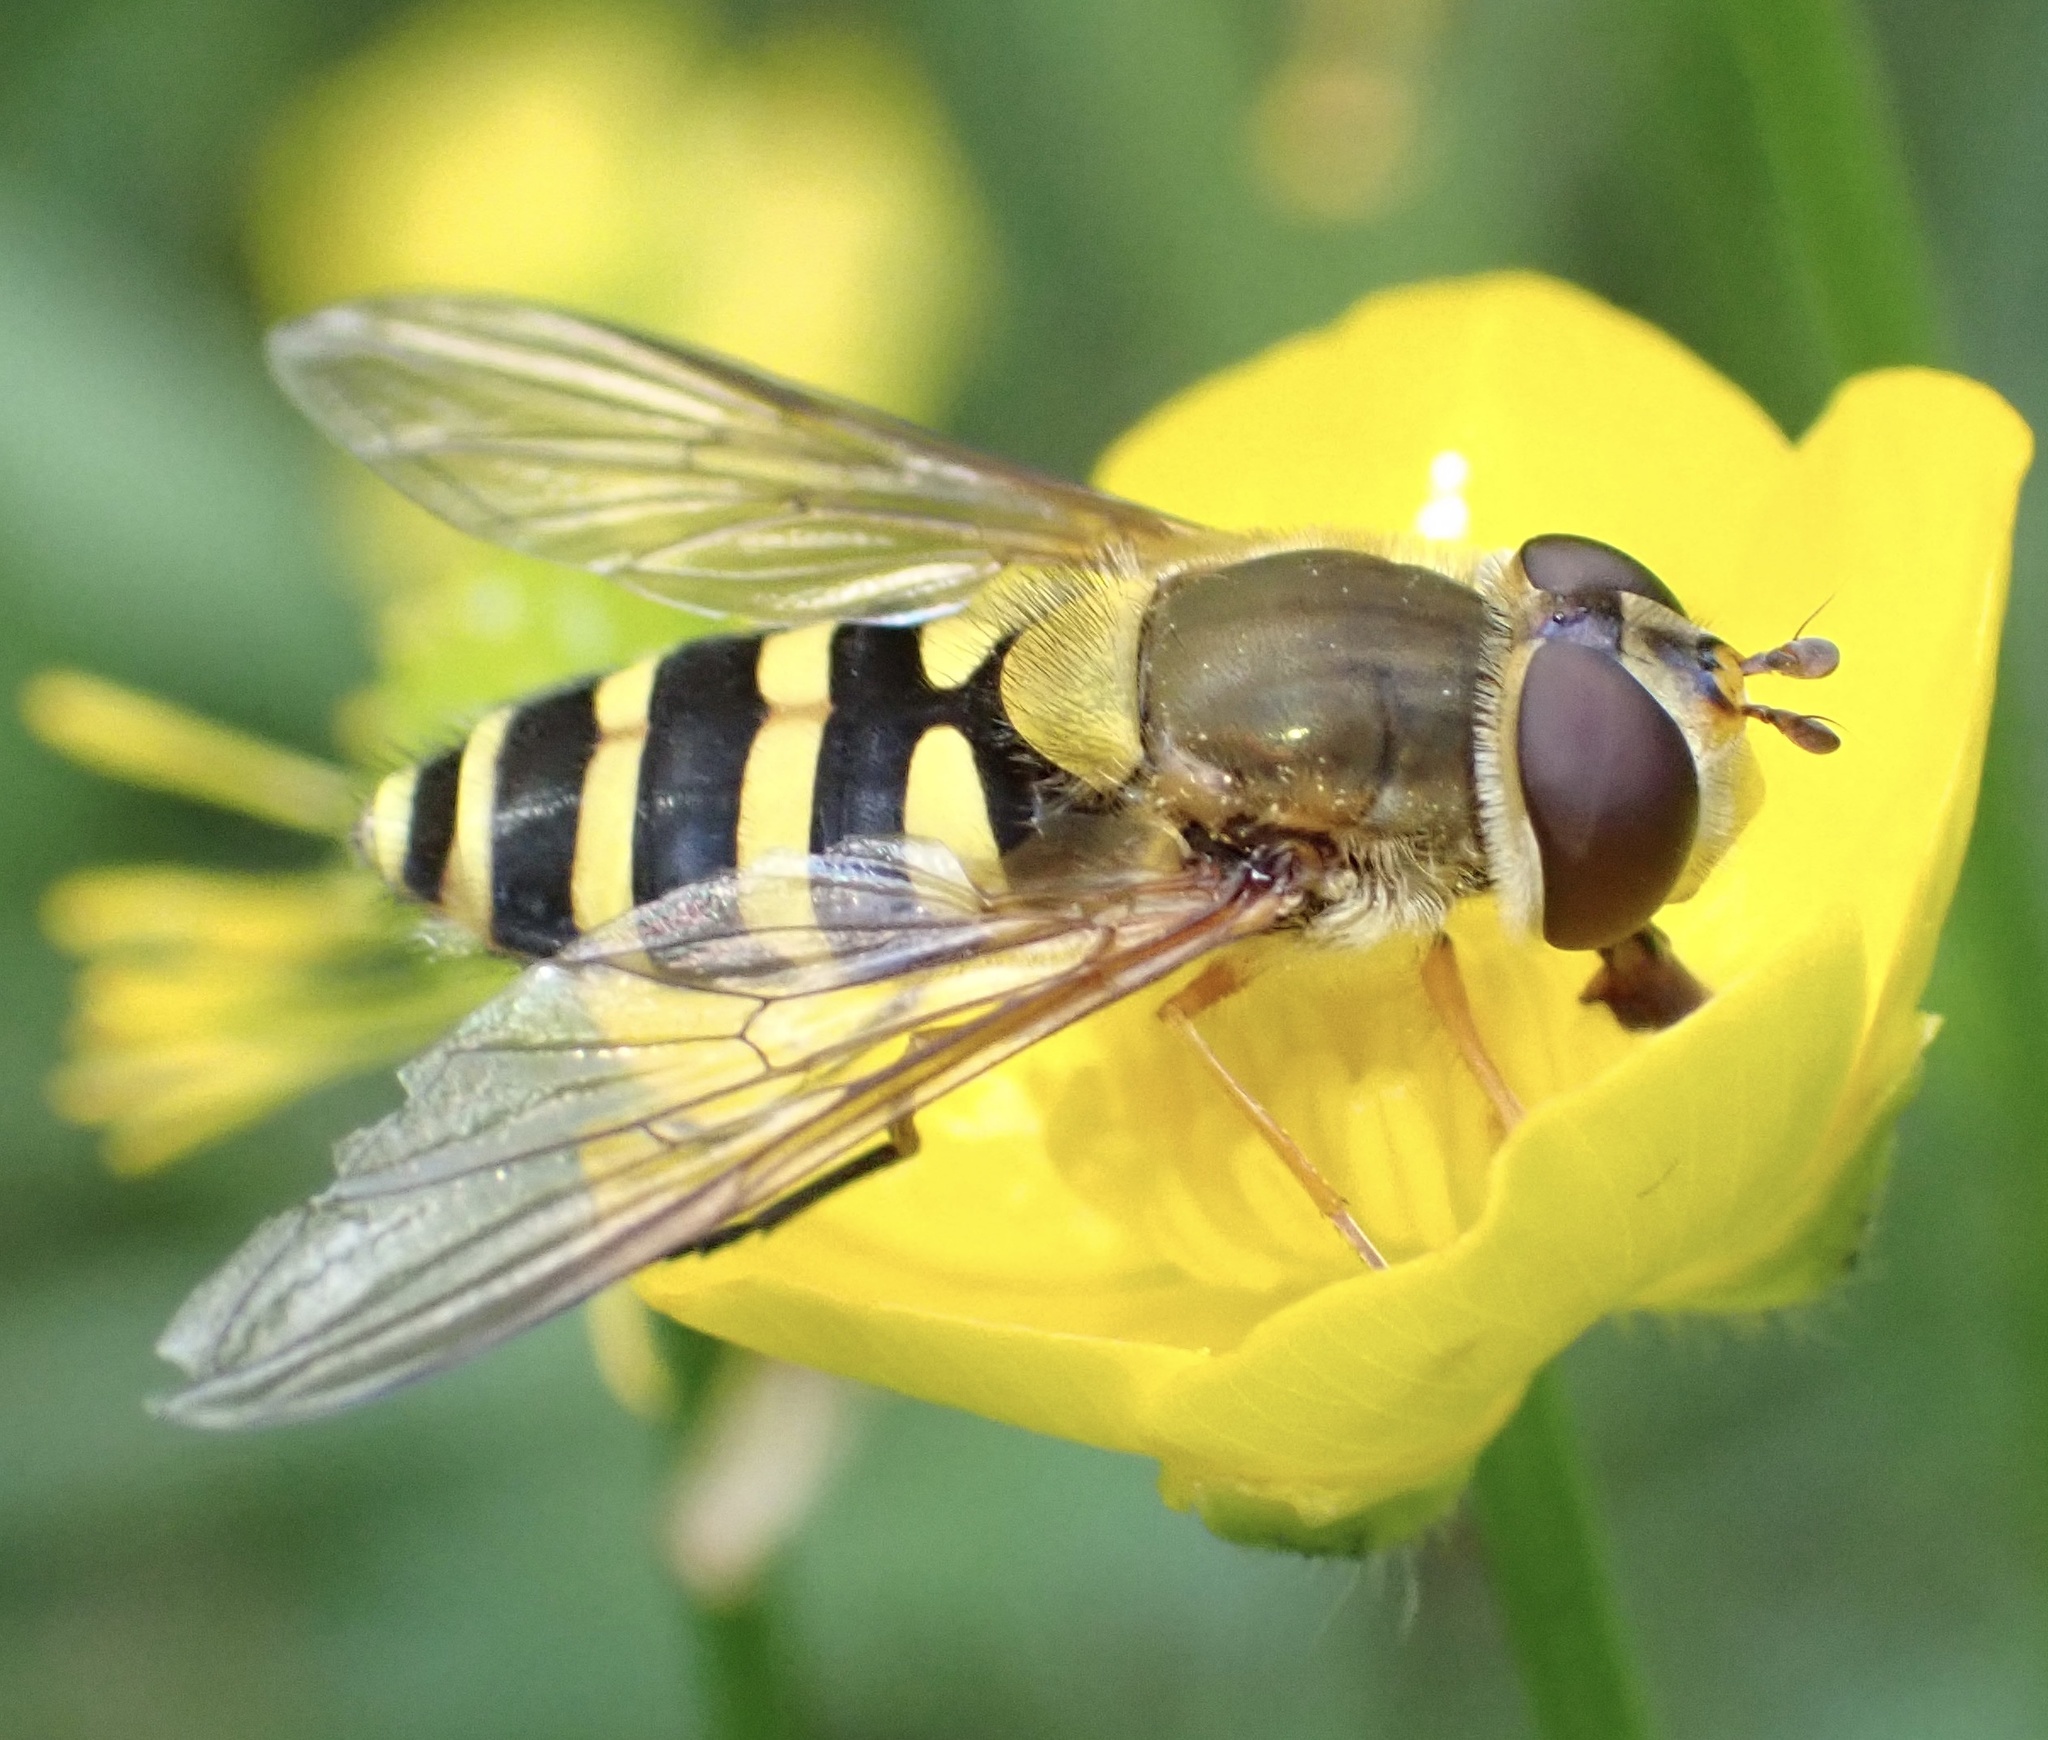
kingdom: Animalia
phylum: Arthropoda
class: Insecta
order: Diptera
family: Syrphidae
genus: Syrphus
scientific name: Syrphus
